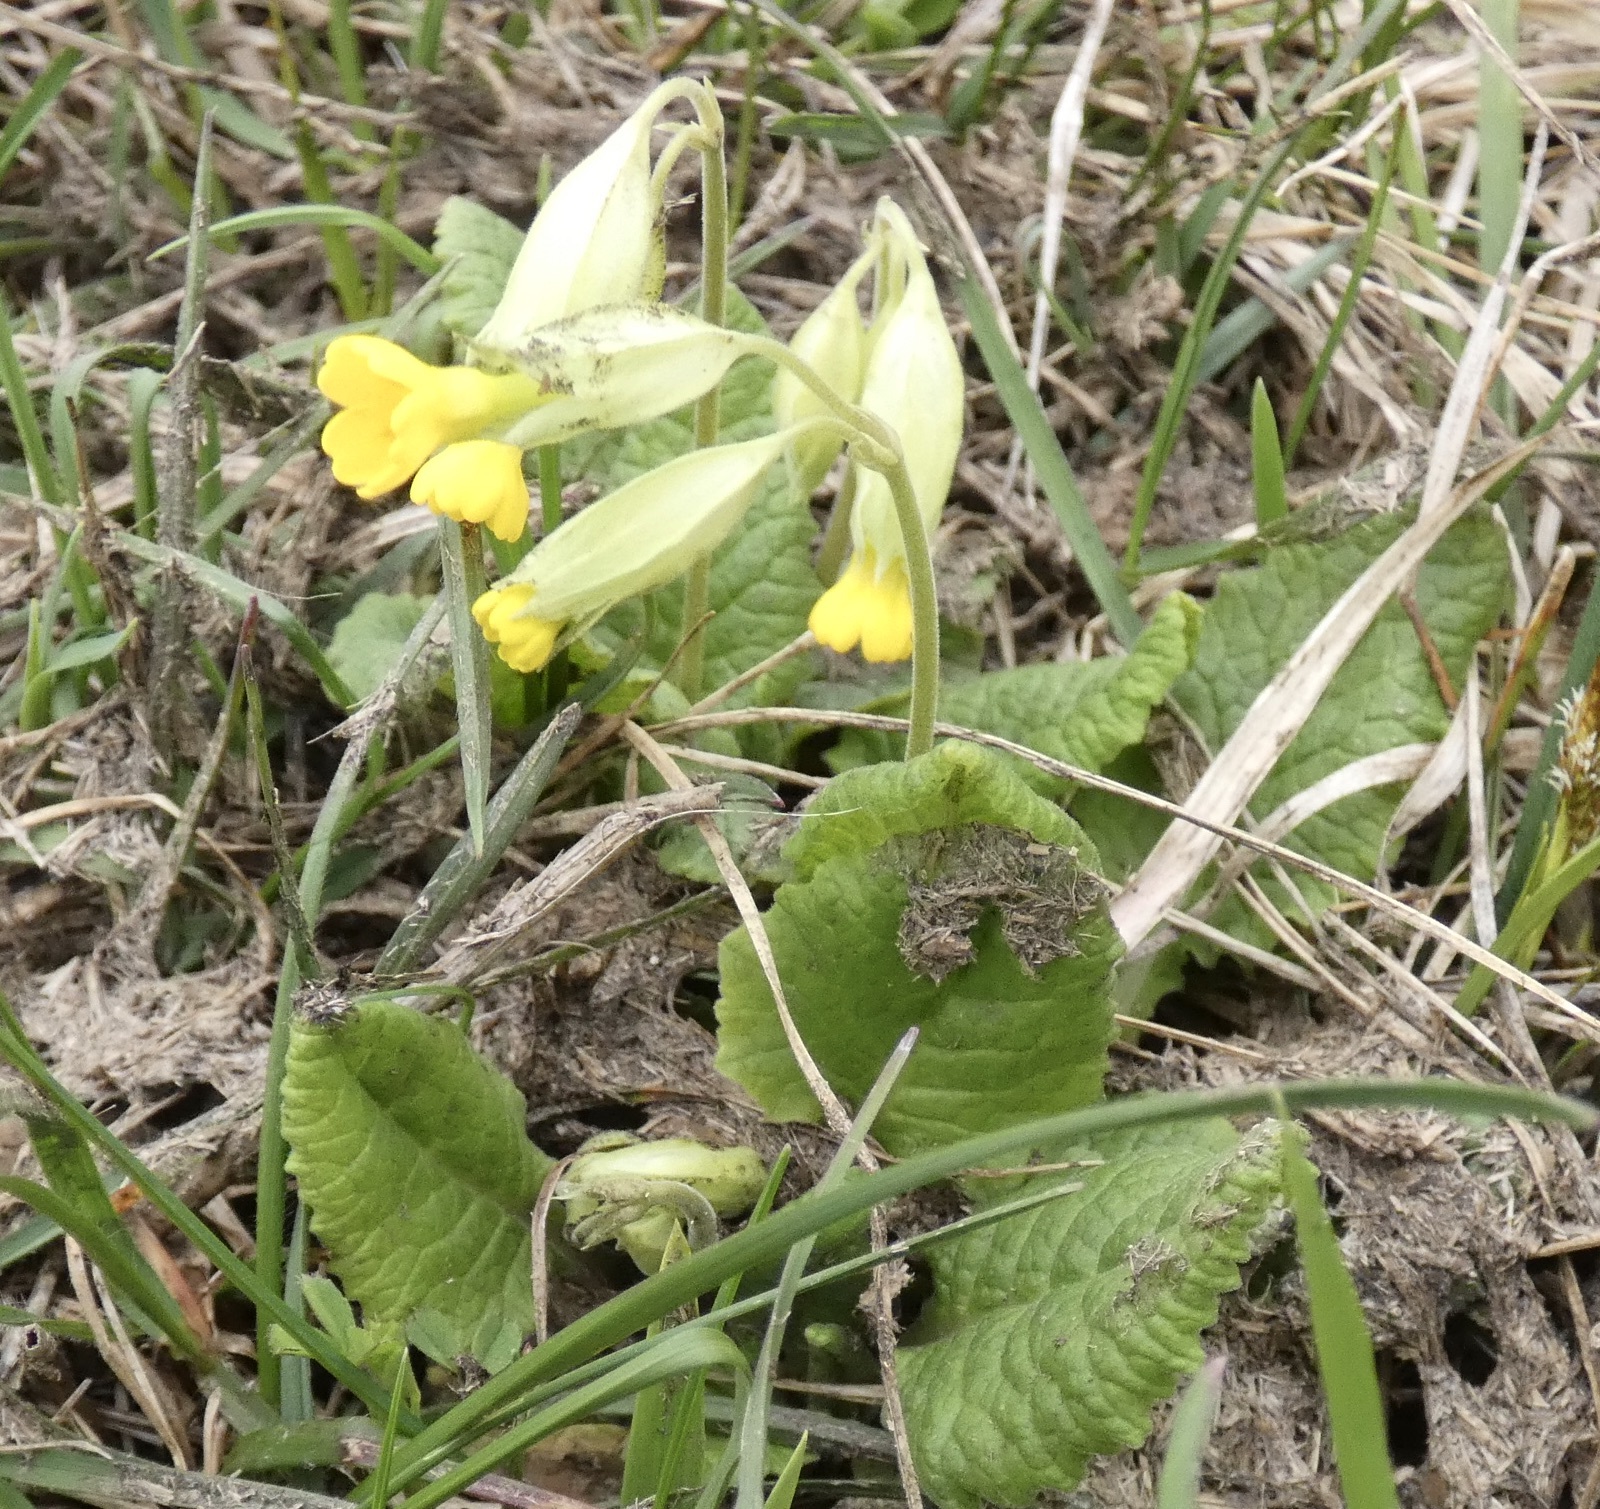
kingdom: Plantae
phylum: Tracheophyta
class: Magnoliopsida
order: Ericales
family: Primulaceae
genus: Primula
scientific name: Primula veris
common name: Cowslip
